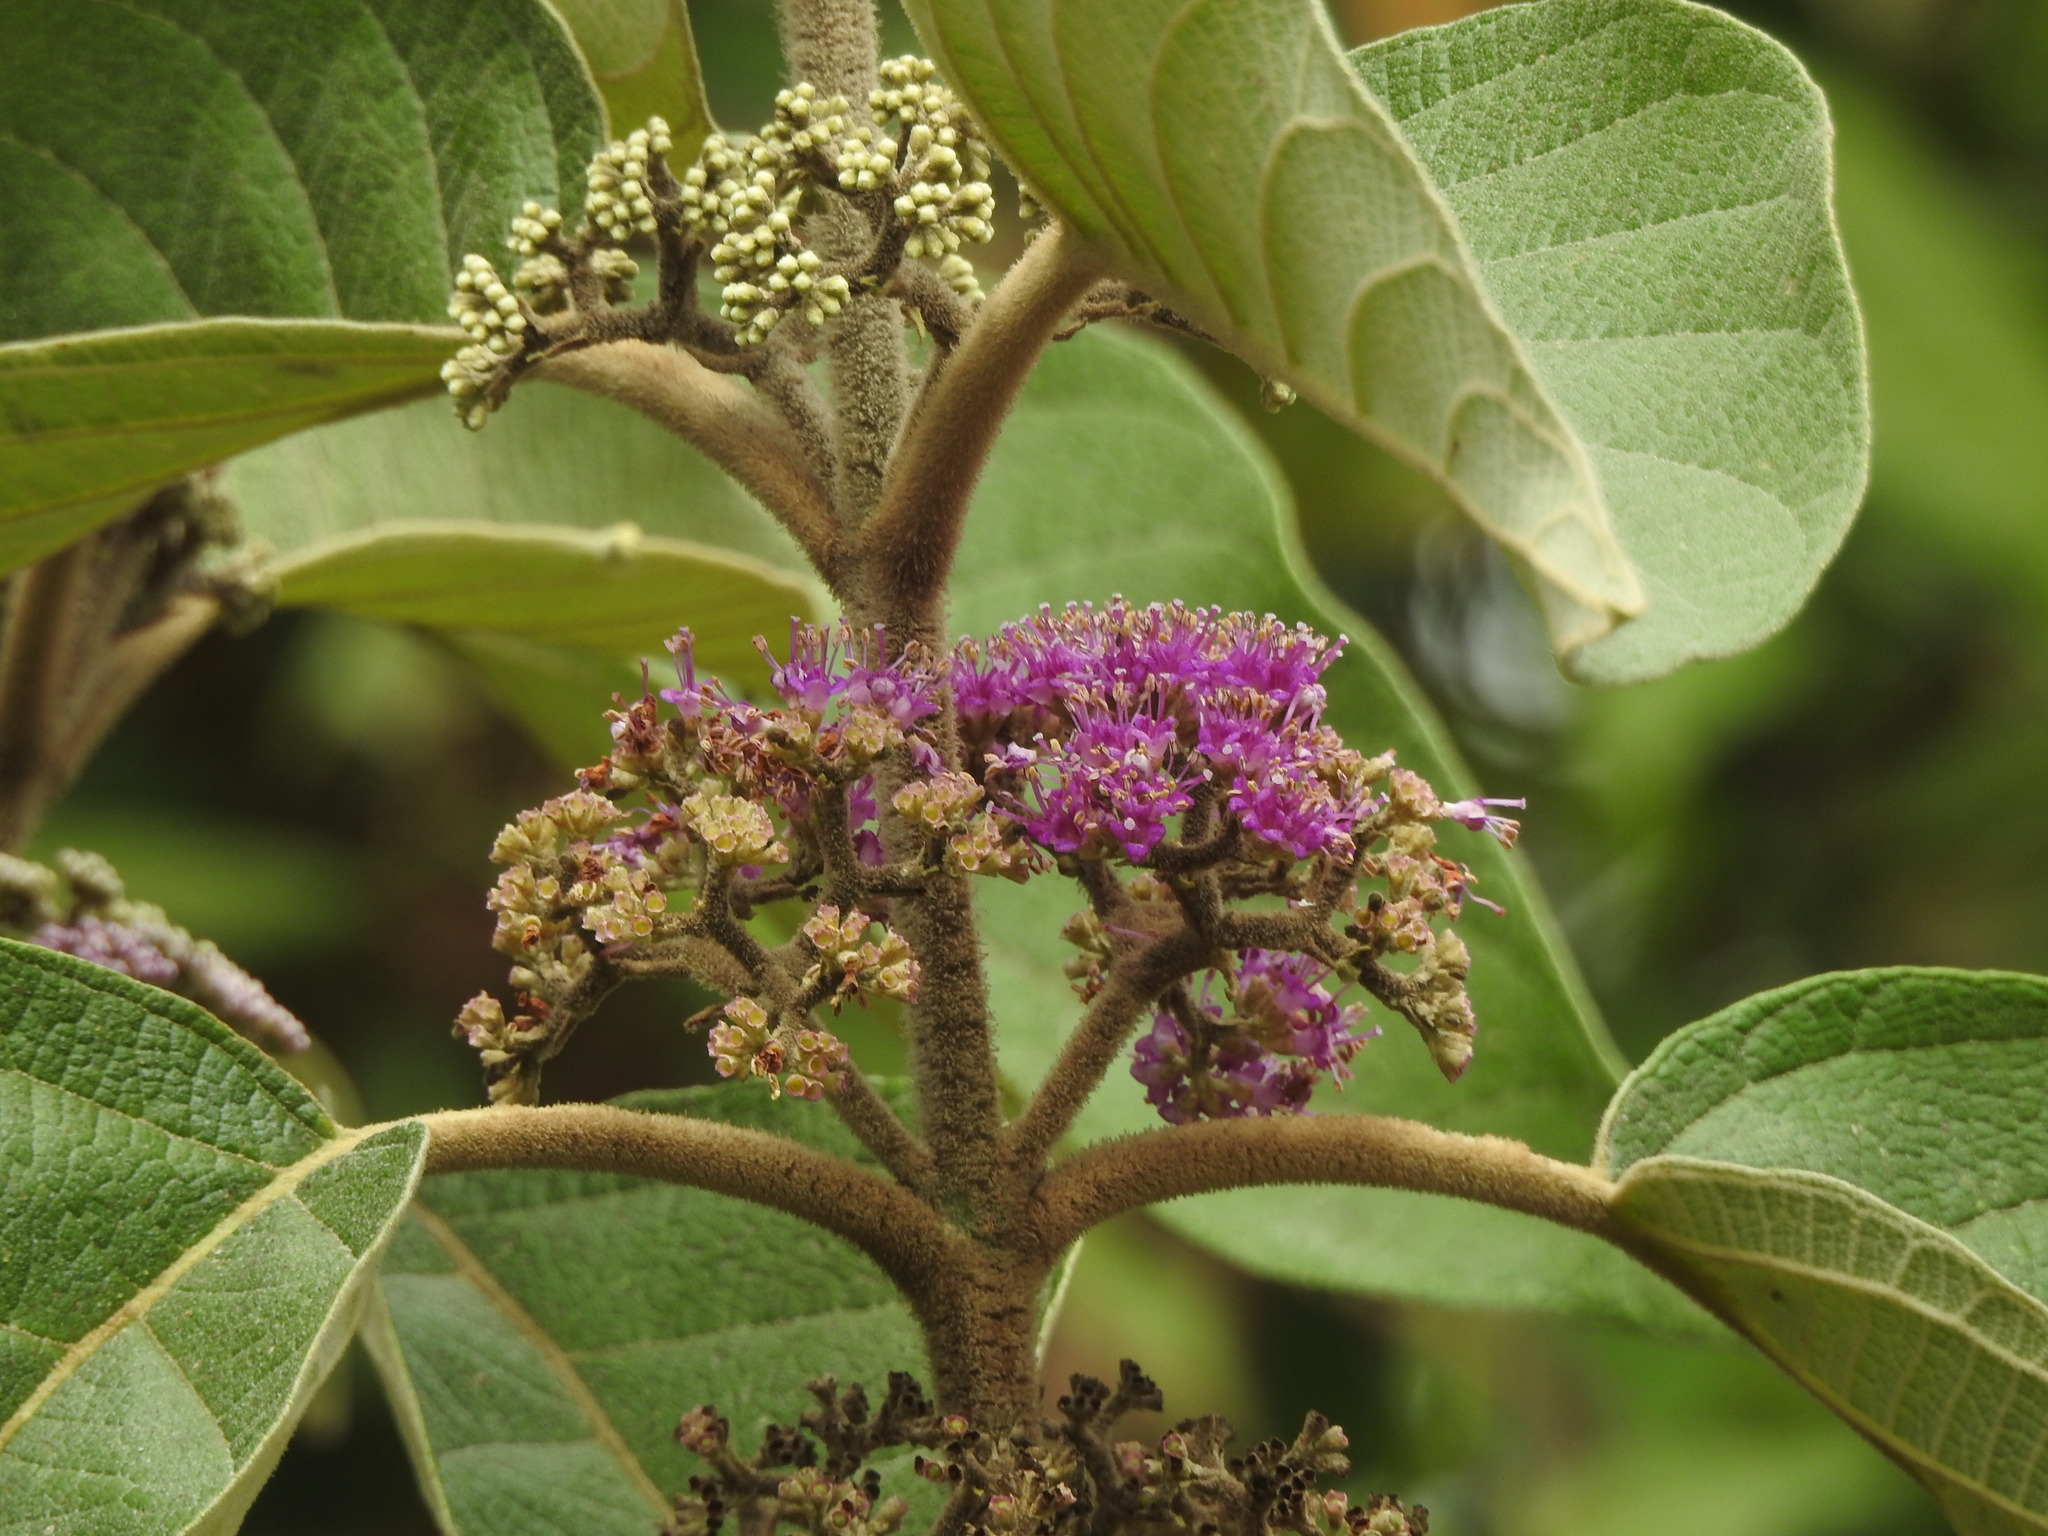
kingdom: Plantae
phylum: Tracheophyta
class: Magnoliopsida
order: Lamiales
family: Lamiaceae
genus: Callicarpa
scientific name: Callicarpa tomentosa
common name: Great woolly malayan-lilac
